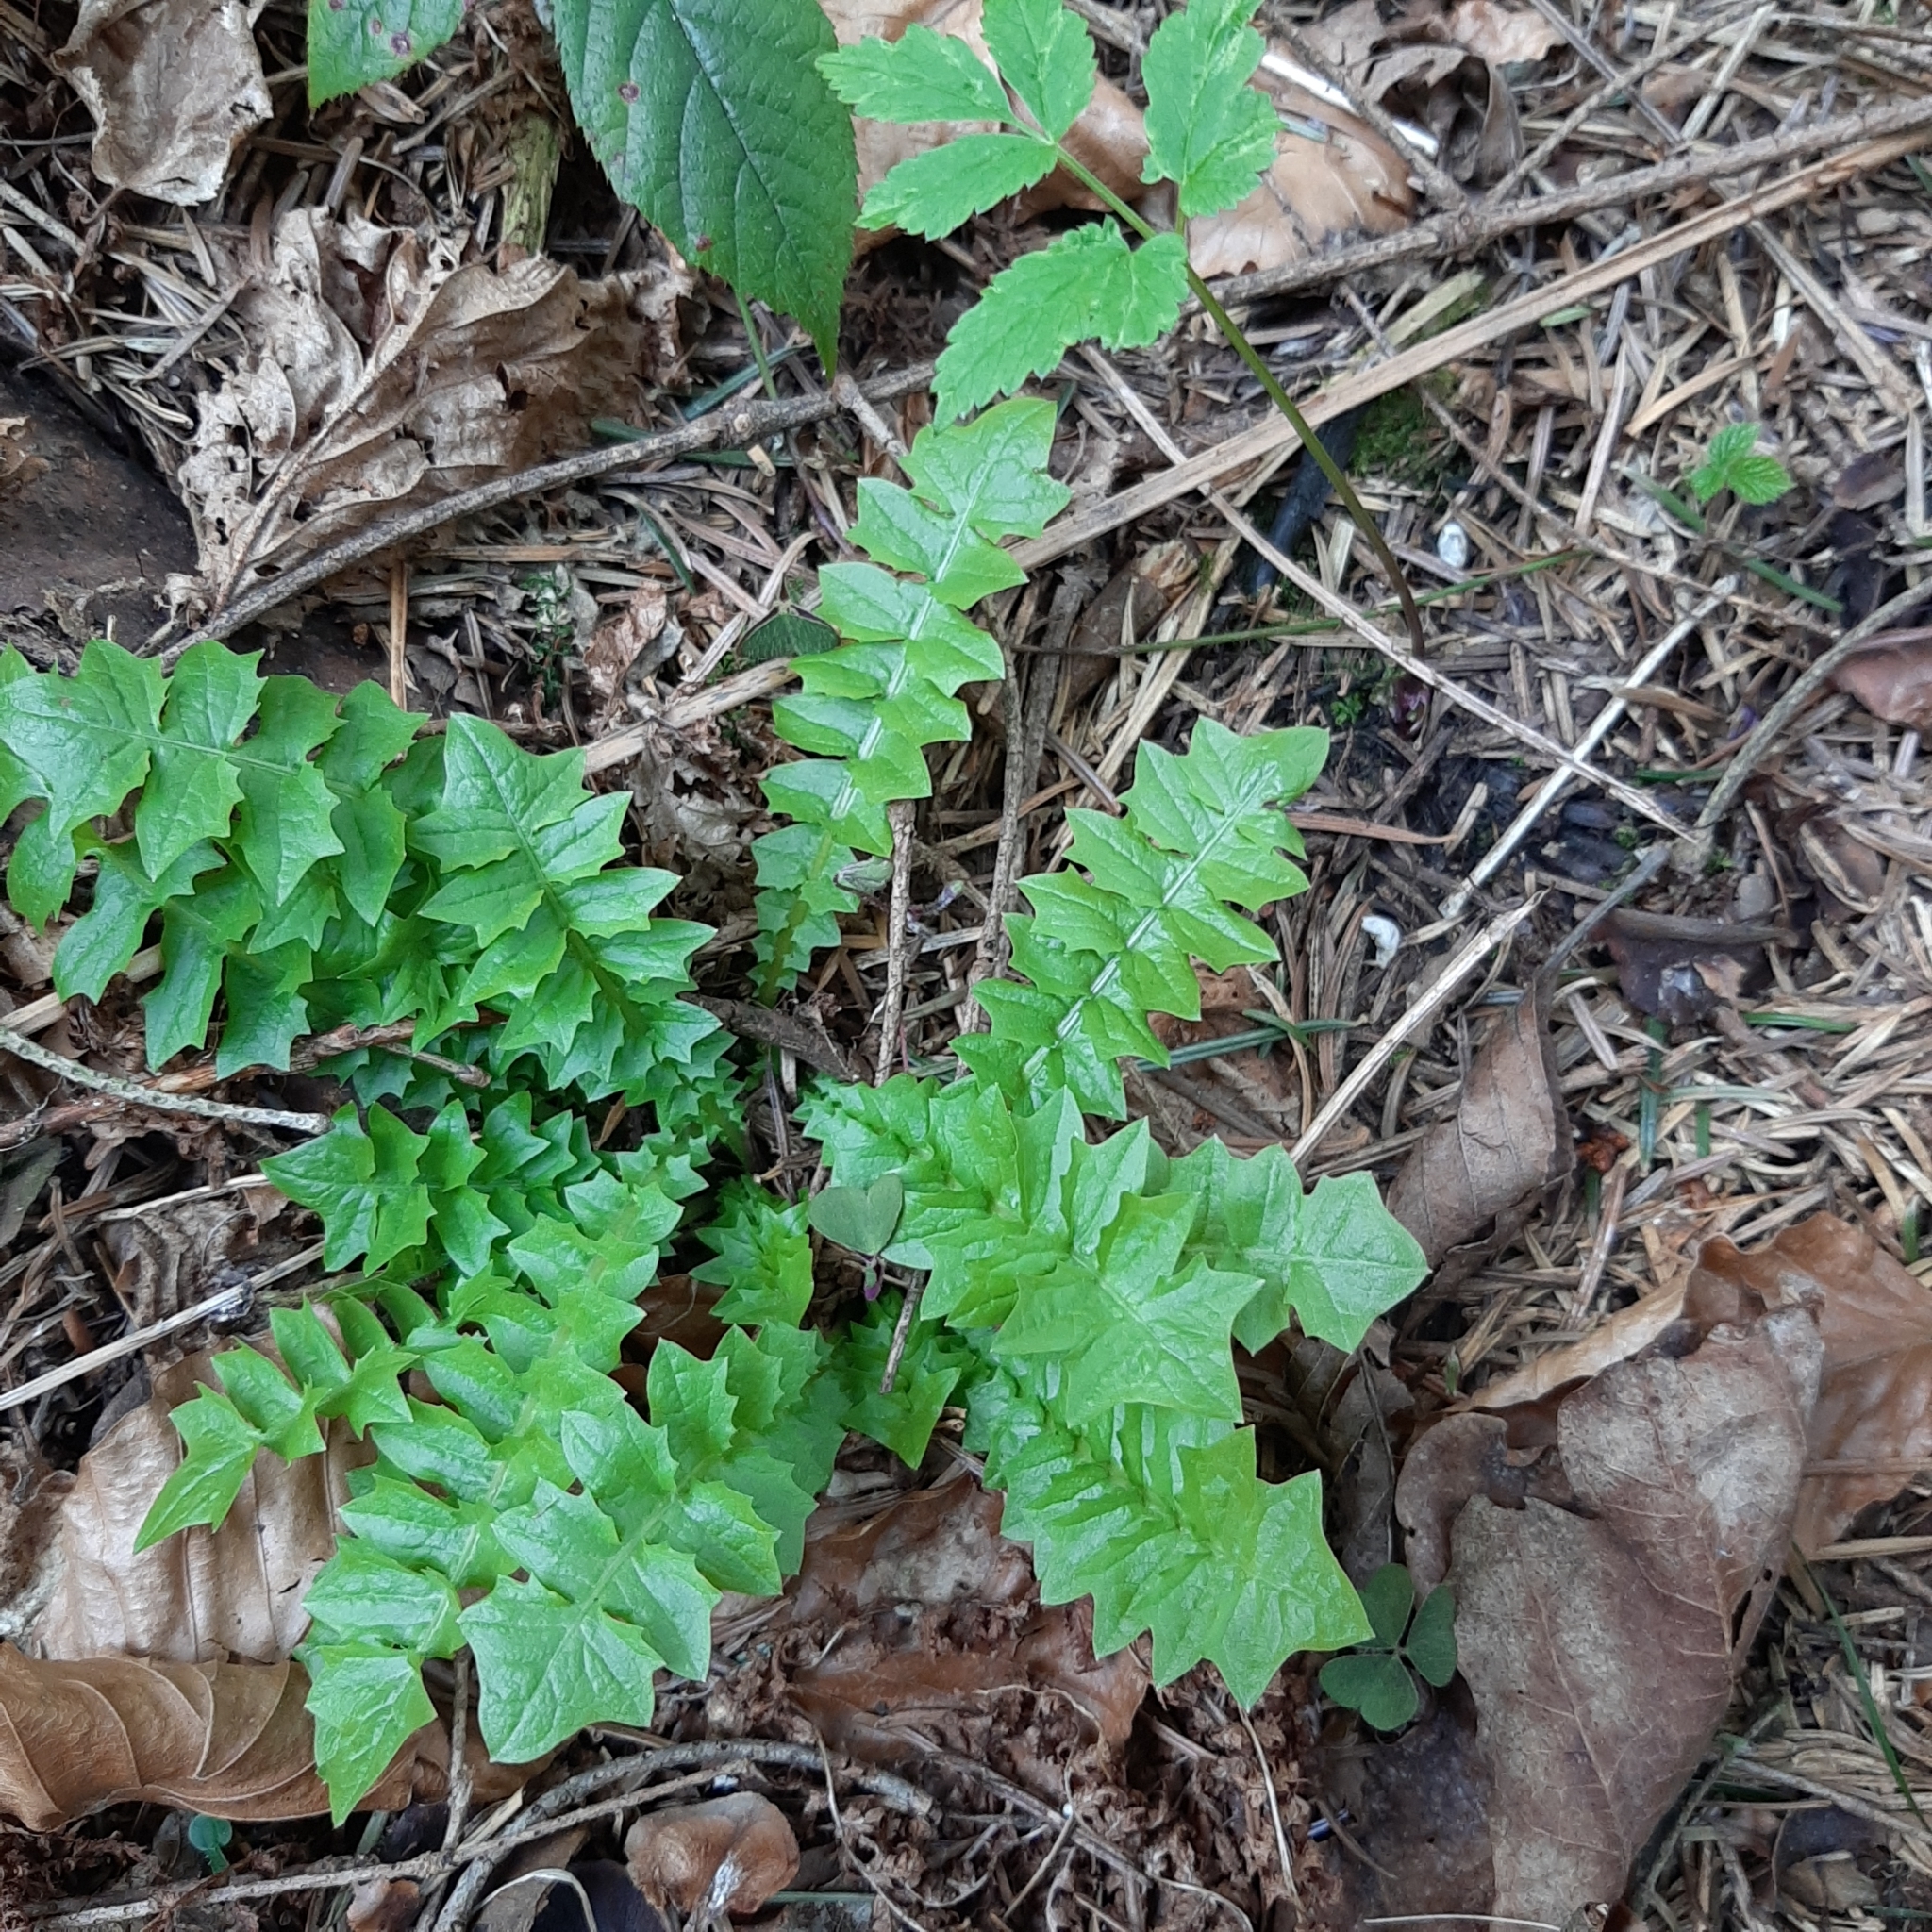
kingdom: Plantae
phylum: Tracheophyta
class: Magnoliopsida
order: Asterales
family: Asteraceae
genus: Aposeris
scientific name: Aposeris foetida
